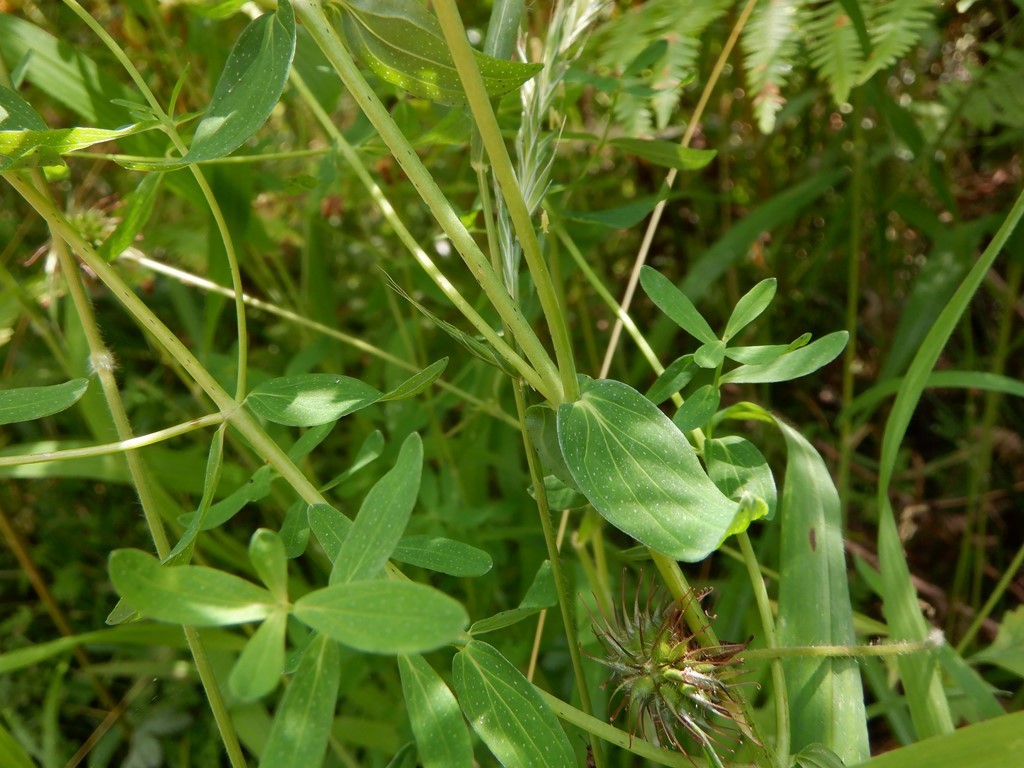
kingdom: Plantae
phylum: Tracheophyta
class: Magnoliopsida
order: Malpighiales
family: Hypericaceae
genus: Hypericum
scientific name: Hypericum pulchrum
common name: Slender st. john's-wort
